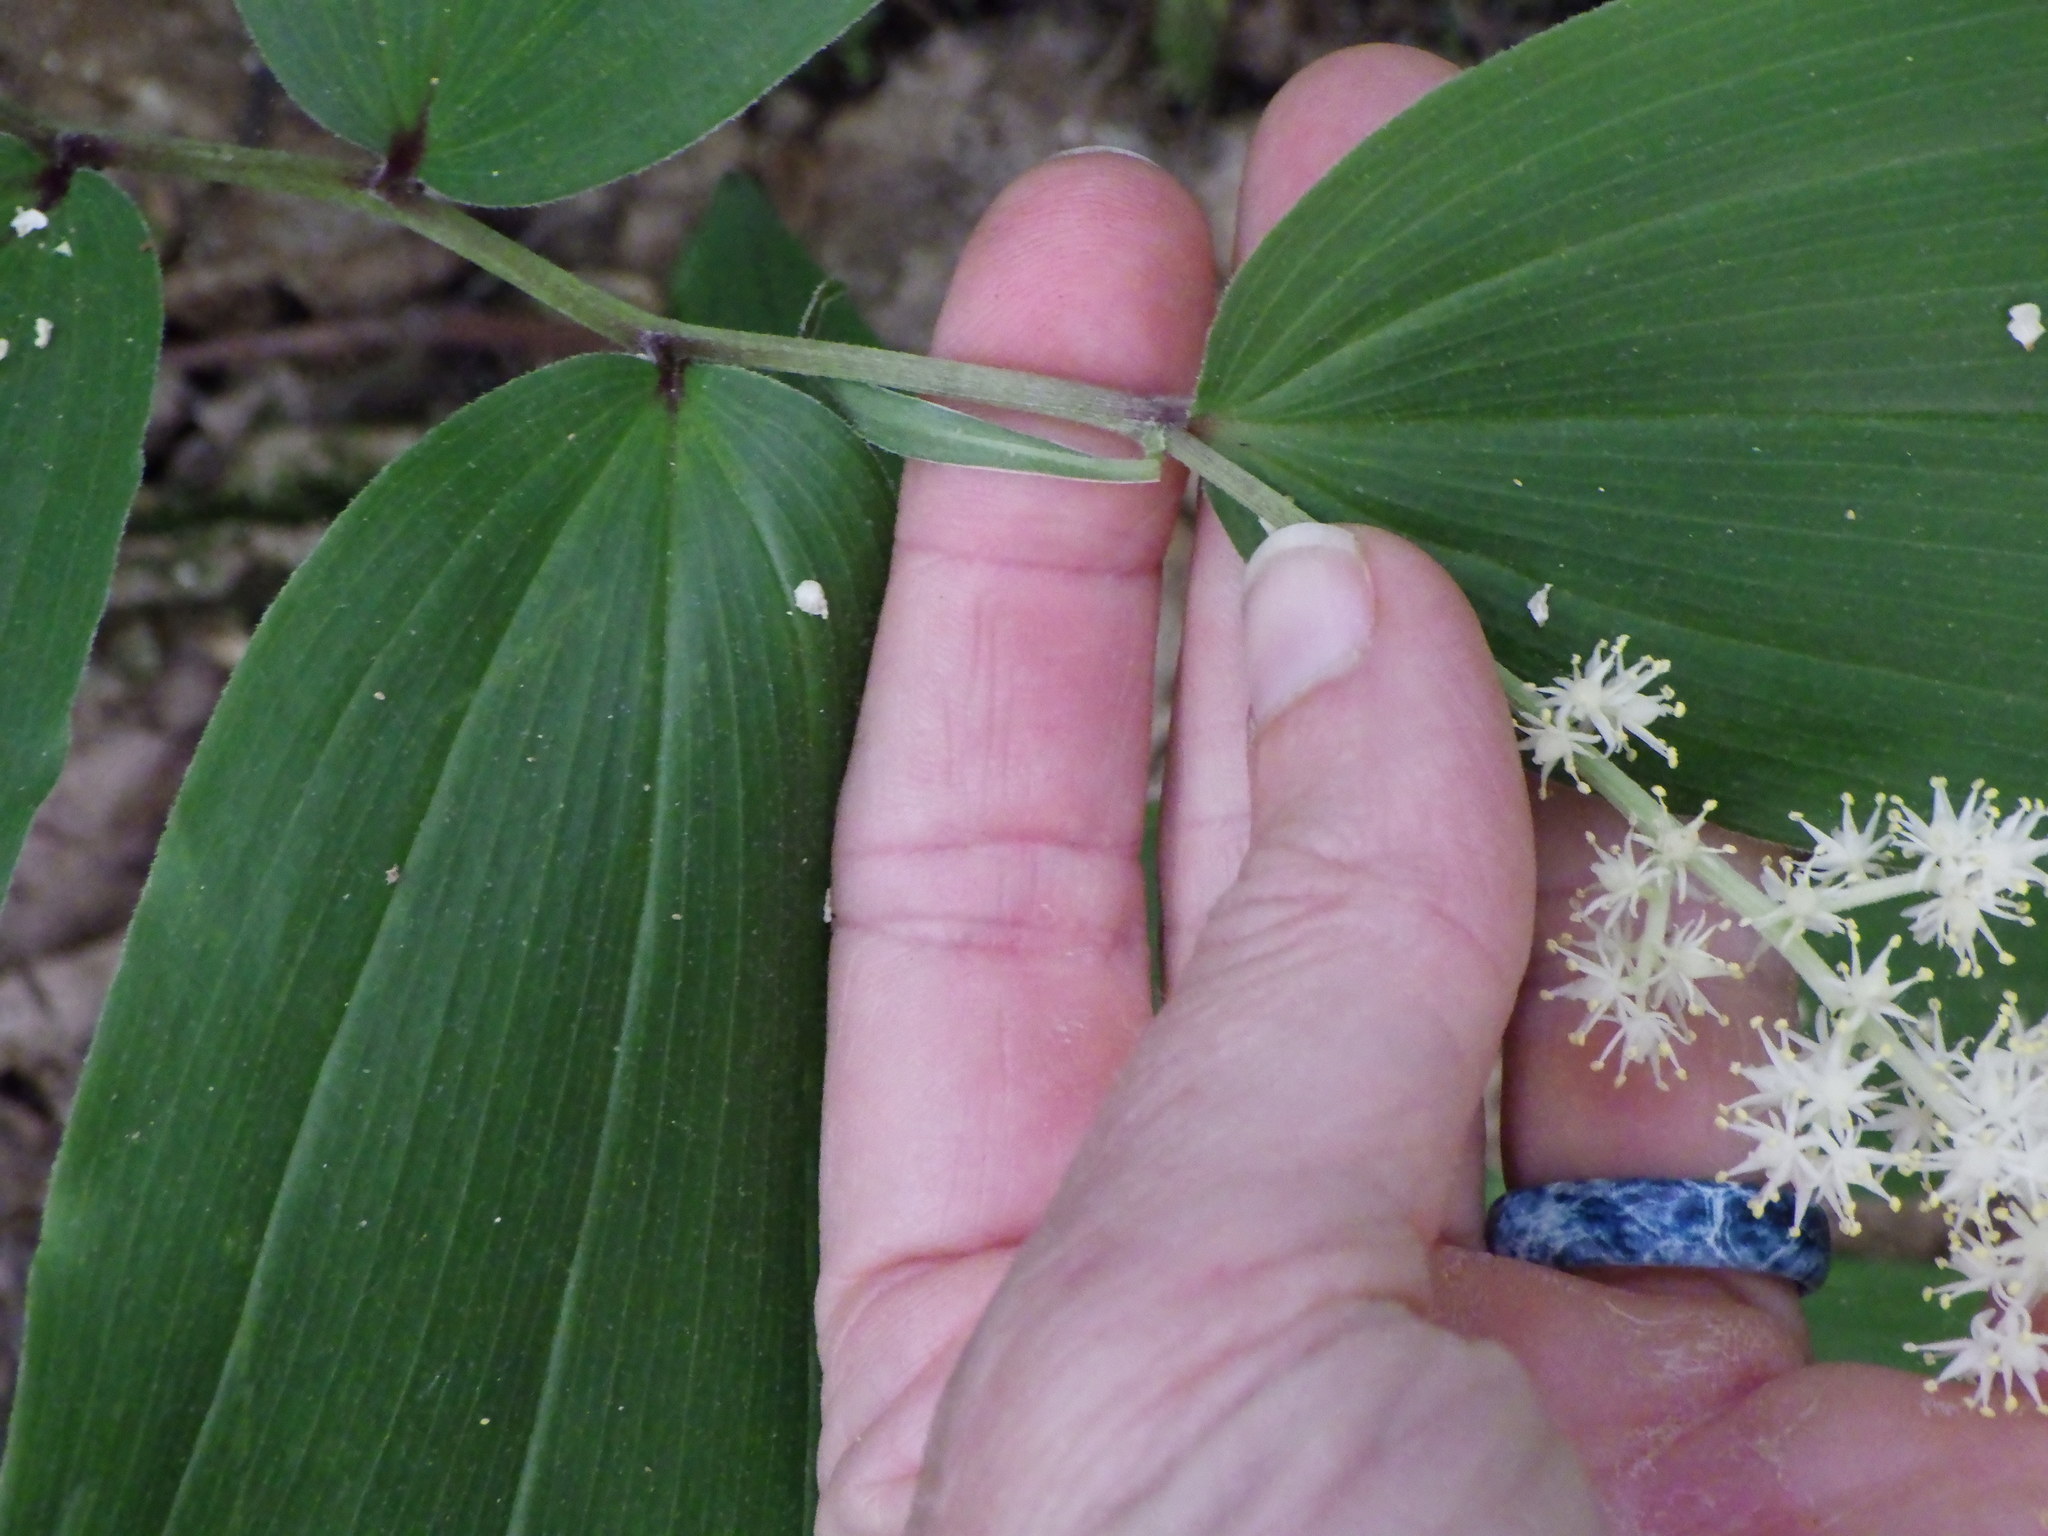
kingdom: Plantae
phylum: Tracheophyta
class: Liliopsida
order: Asparagales
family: Asparagaceae
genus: Maianthemum
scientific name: Maianthemum racemosum
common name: False spikenard
